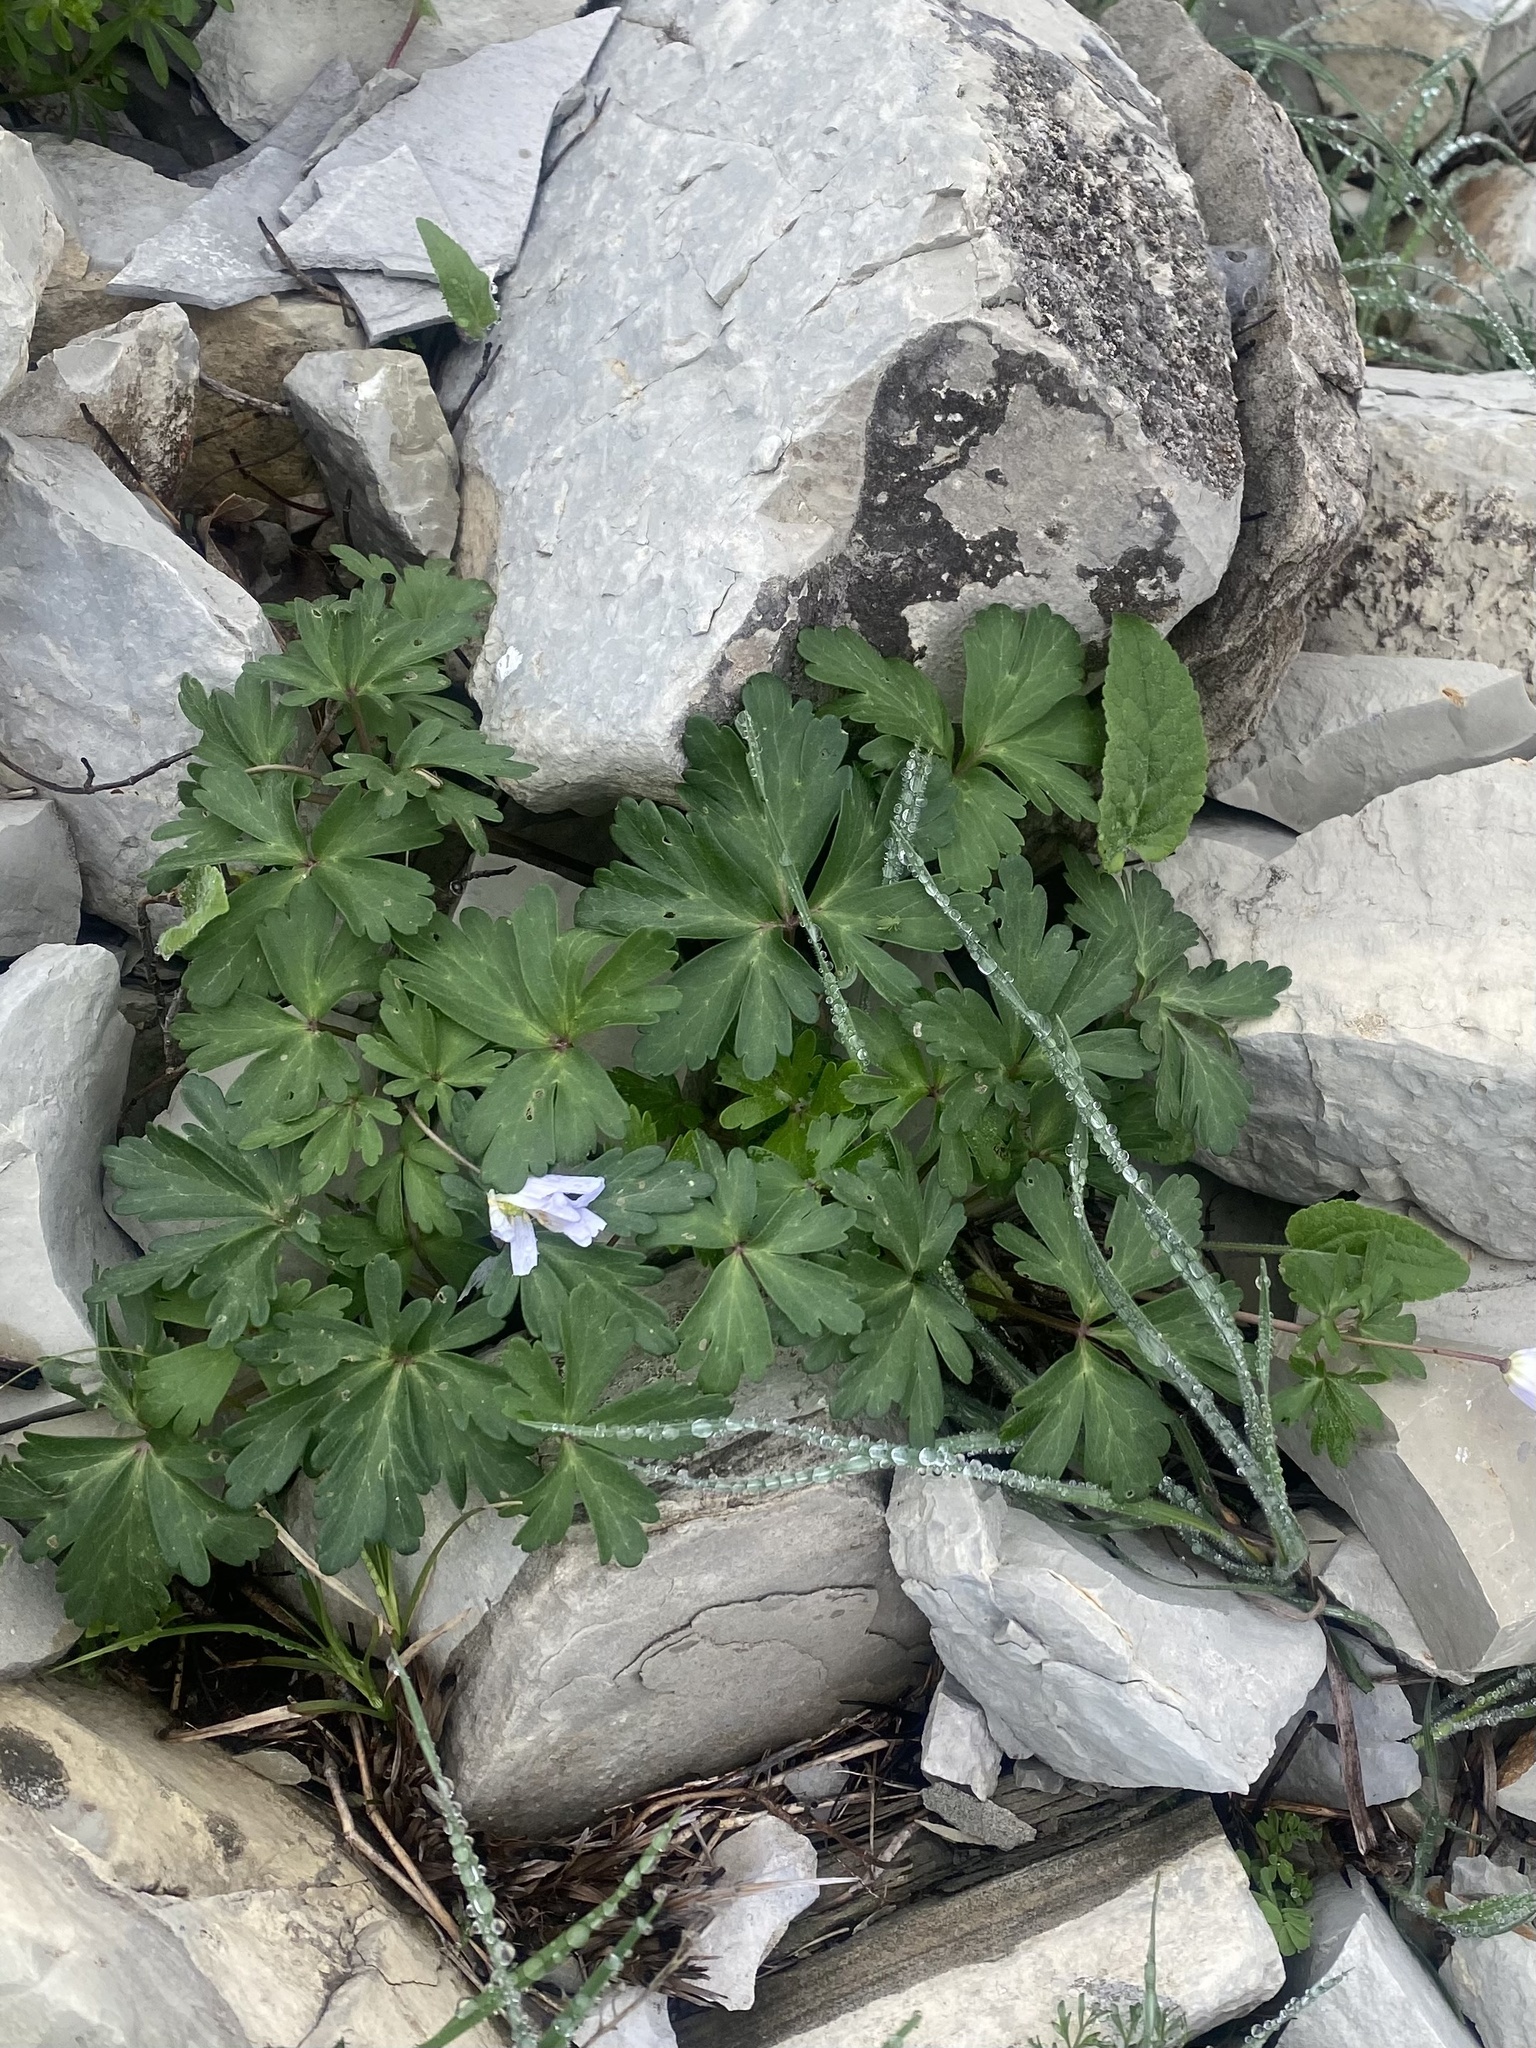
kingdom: Plantae
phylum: Tracheophyta
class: Magnoliopsida
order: Ranunculales
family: Ranunculaceae
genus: Anemone
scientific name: Anemone blanda
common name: Balkan anemone
